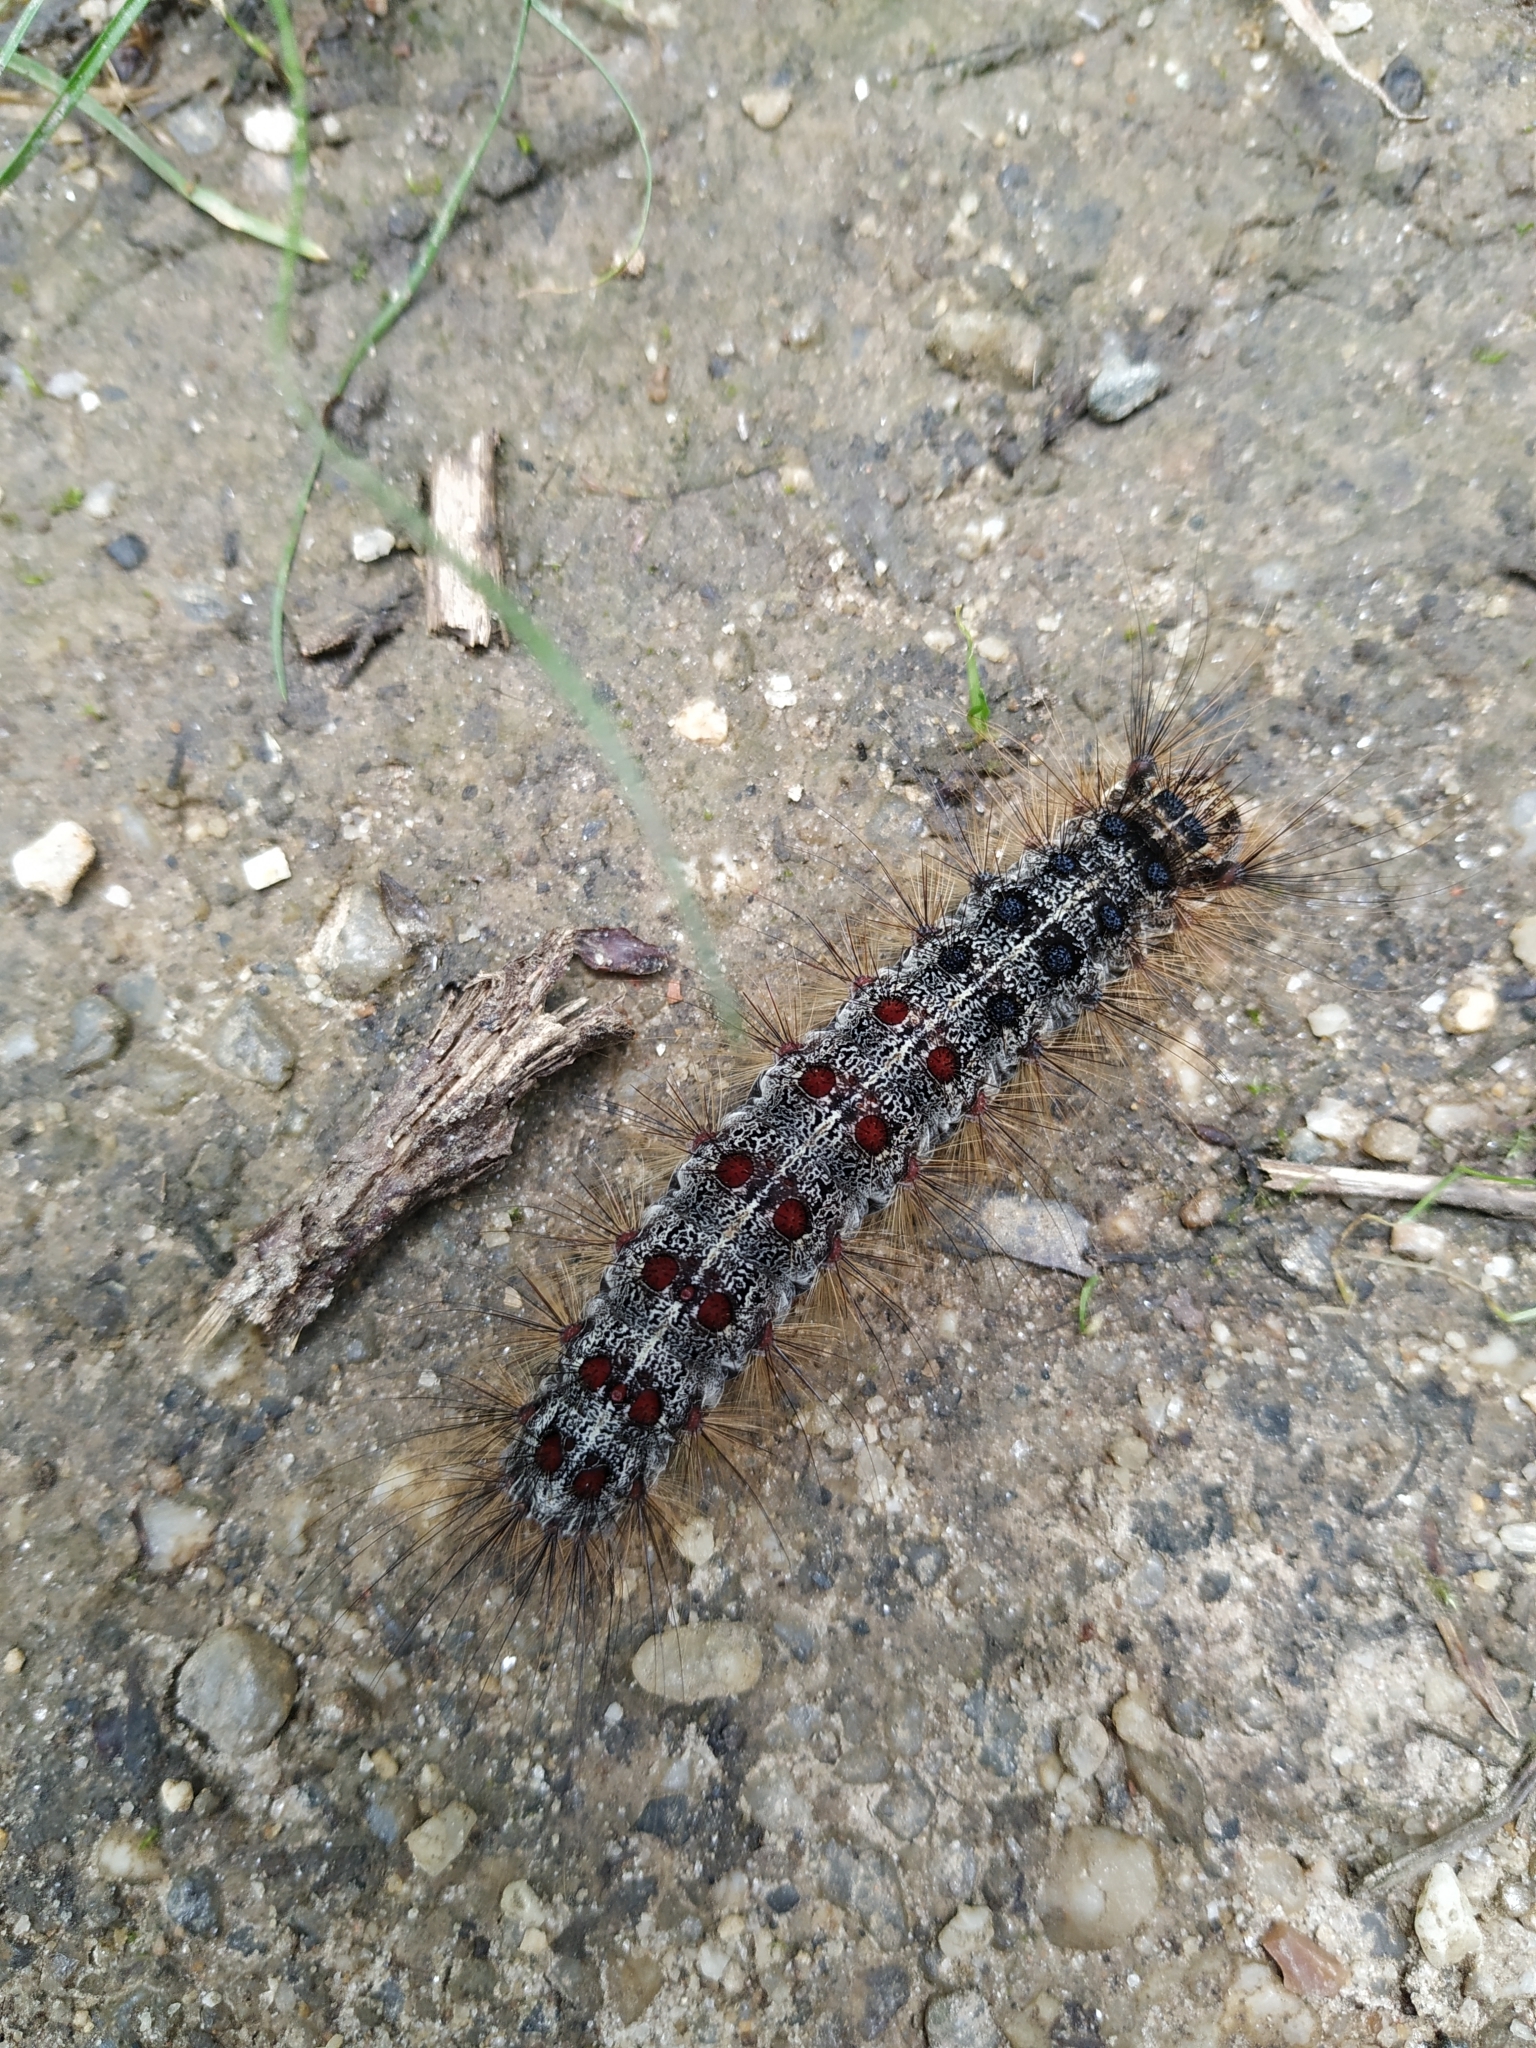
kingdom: Animalia
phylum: Arthropoda
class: Insecta
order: Lepidoptera
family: Erebidae
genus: Lymantria
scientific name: Lymantria dispar
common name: Gypsy moth
